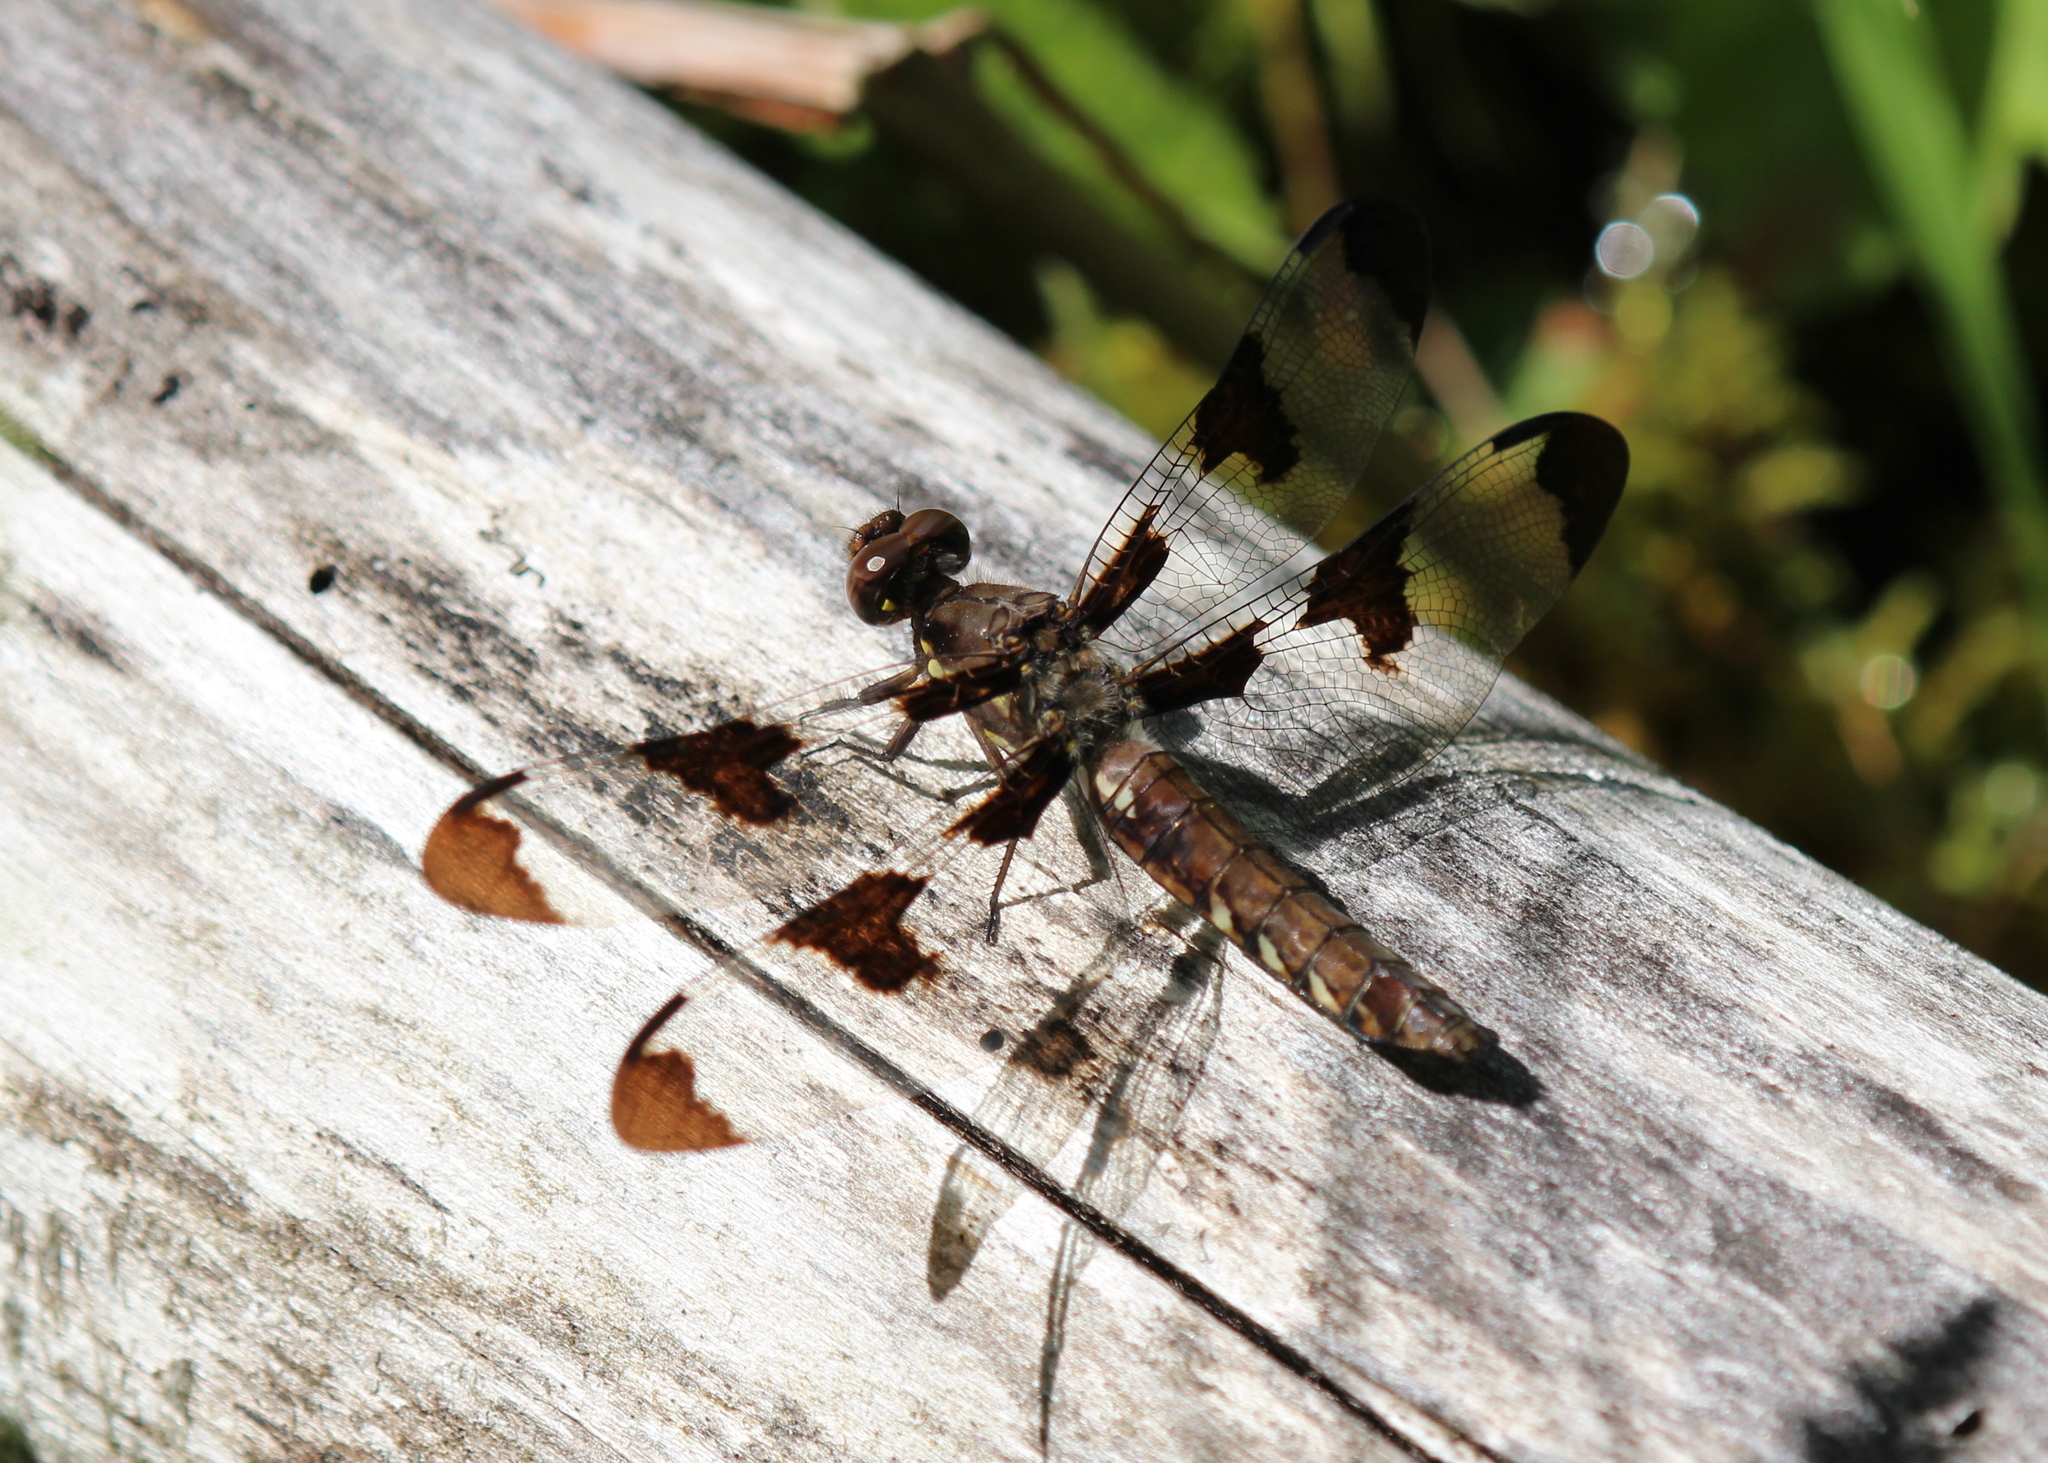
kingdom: Animalia
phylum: Arthropoda
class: Insecta
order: Odonata
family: Libellulidae
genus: Plathemis
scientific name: Plathemis lydia
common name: Common whitetail
